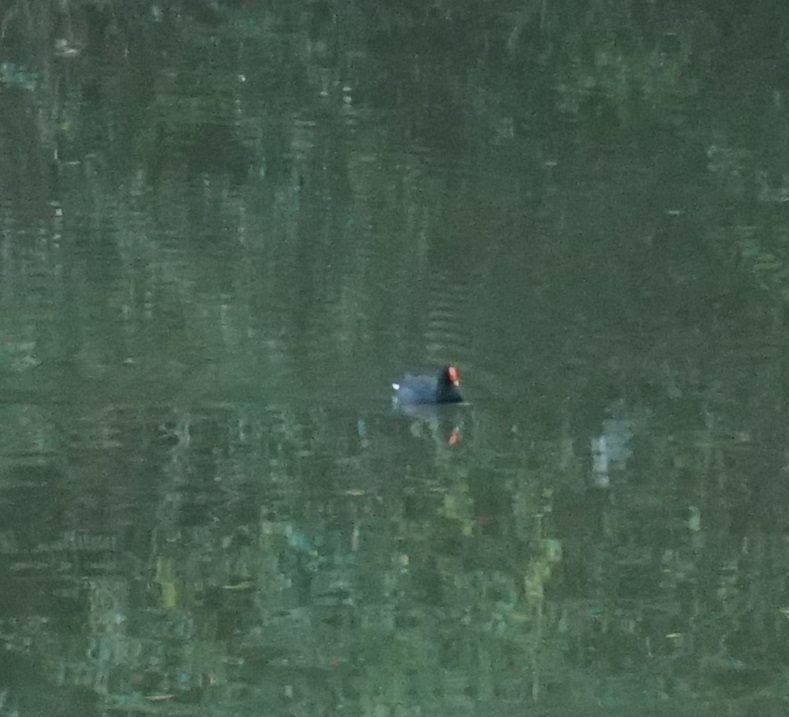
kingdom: Animalia
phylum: Chordata
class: Aves
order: Gruiformes
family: Rallidae
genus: Gallinula
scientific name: Gallinula tenebrosa
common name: Dusky moorhen
